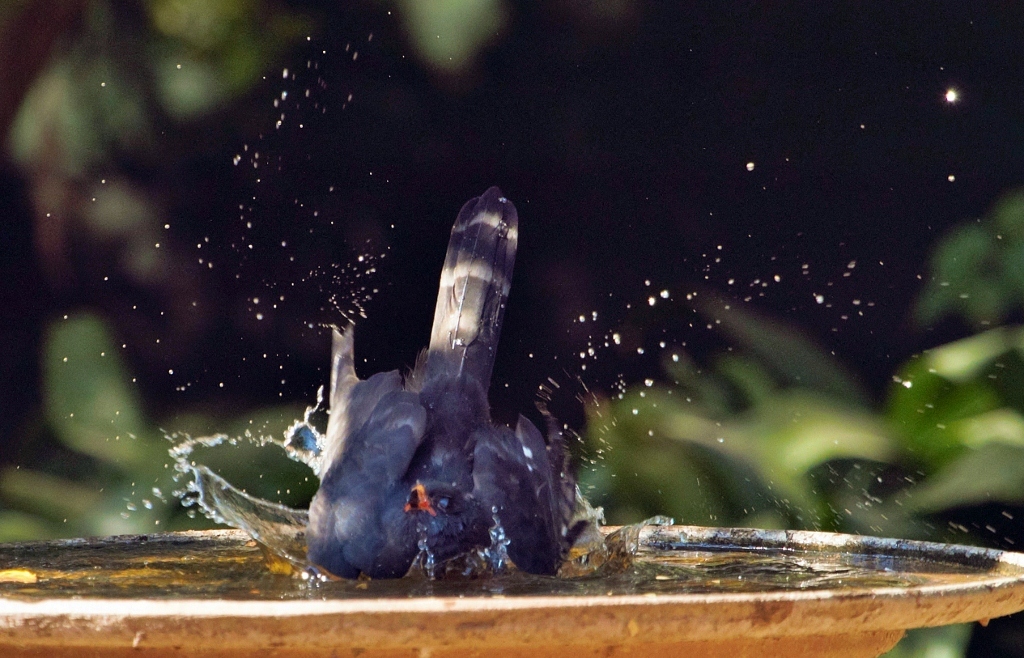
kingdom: Animalia
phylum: Chordata
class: Aves
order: Accipitriformes
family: Accipitridae
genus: Micronisus
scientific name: Micronisus gabar
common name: Gabar goshawk
